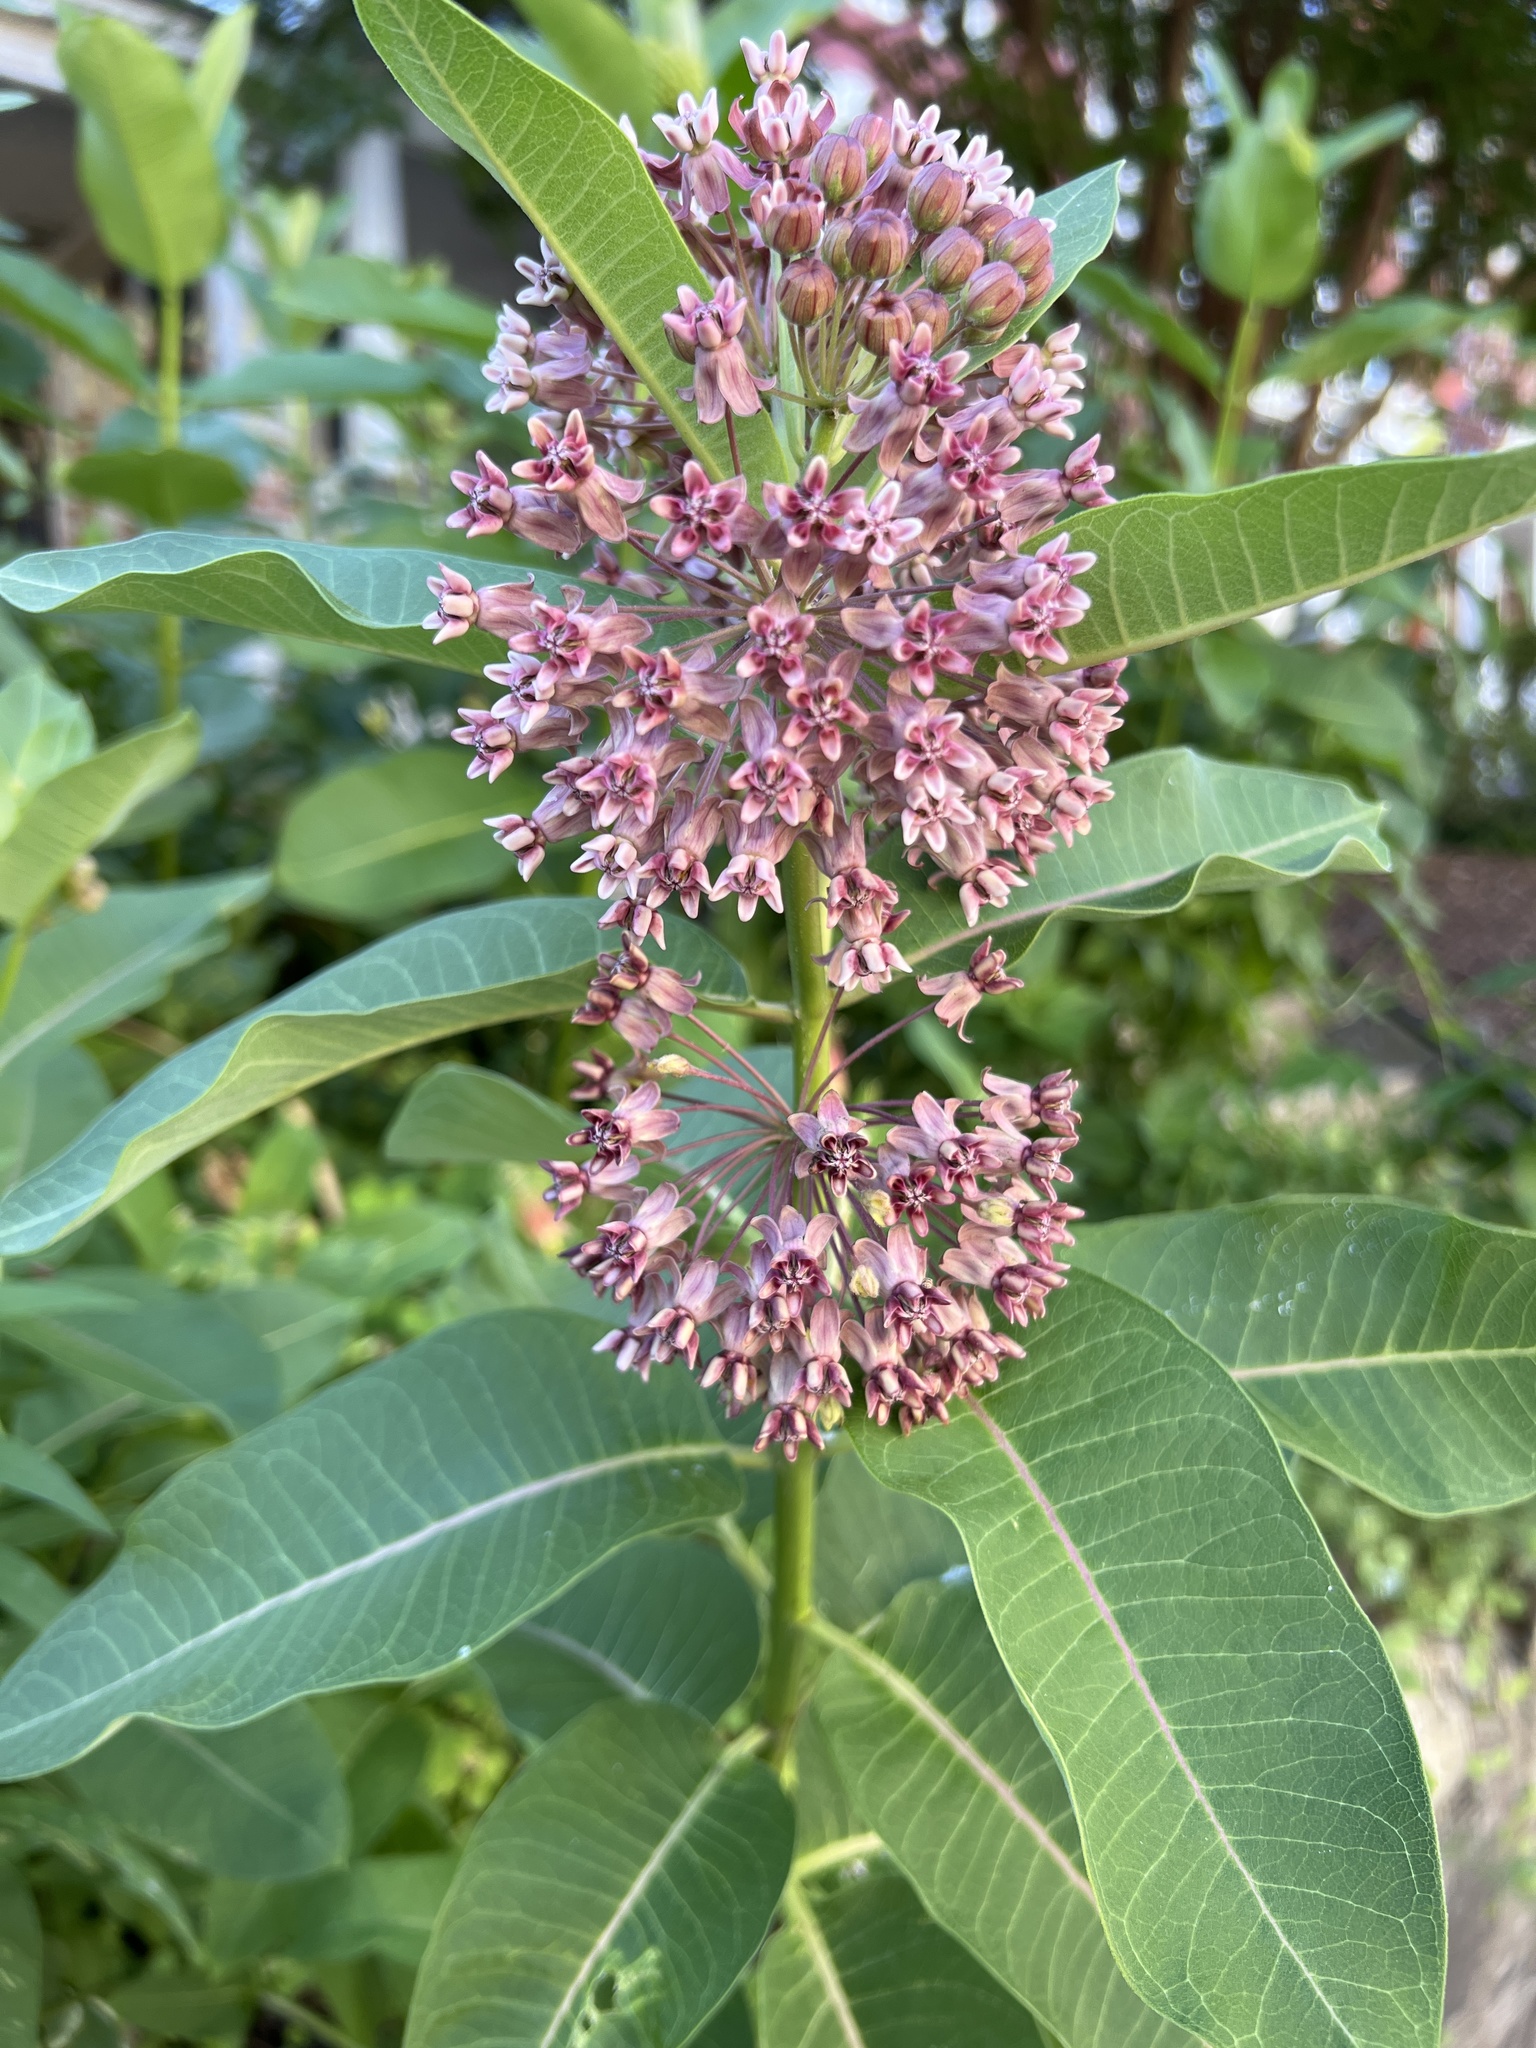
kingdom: Plantae
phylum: Tracheophyta
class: Magnoliopsida
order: Gentianales
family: Apocynaceae
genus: Asclepias
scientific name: Asclepias syriaca
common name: Common milkweed
